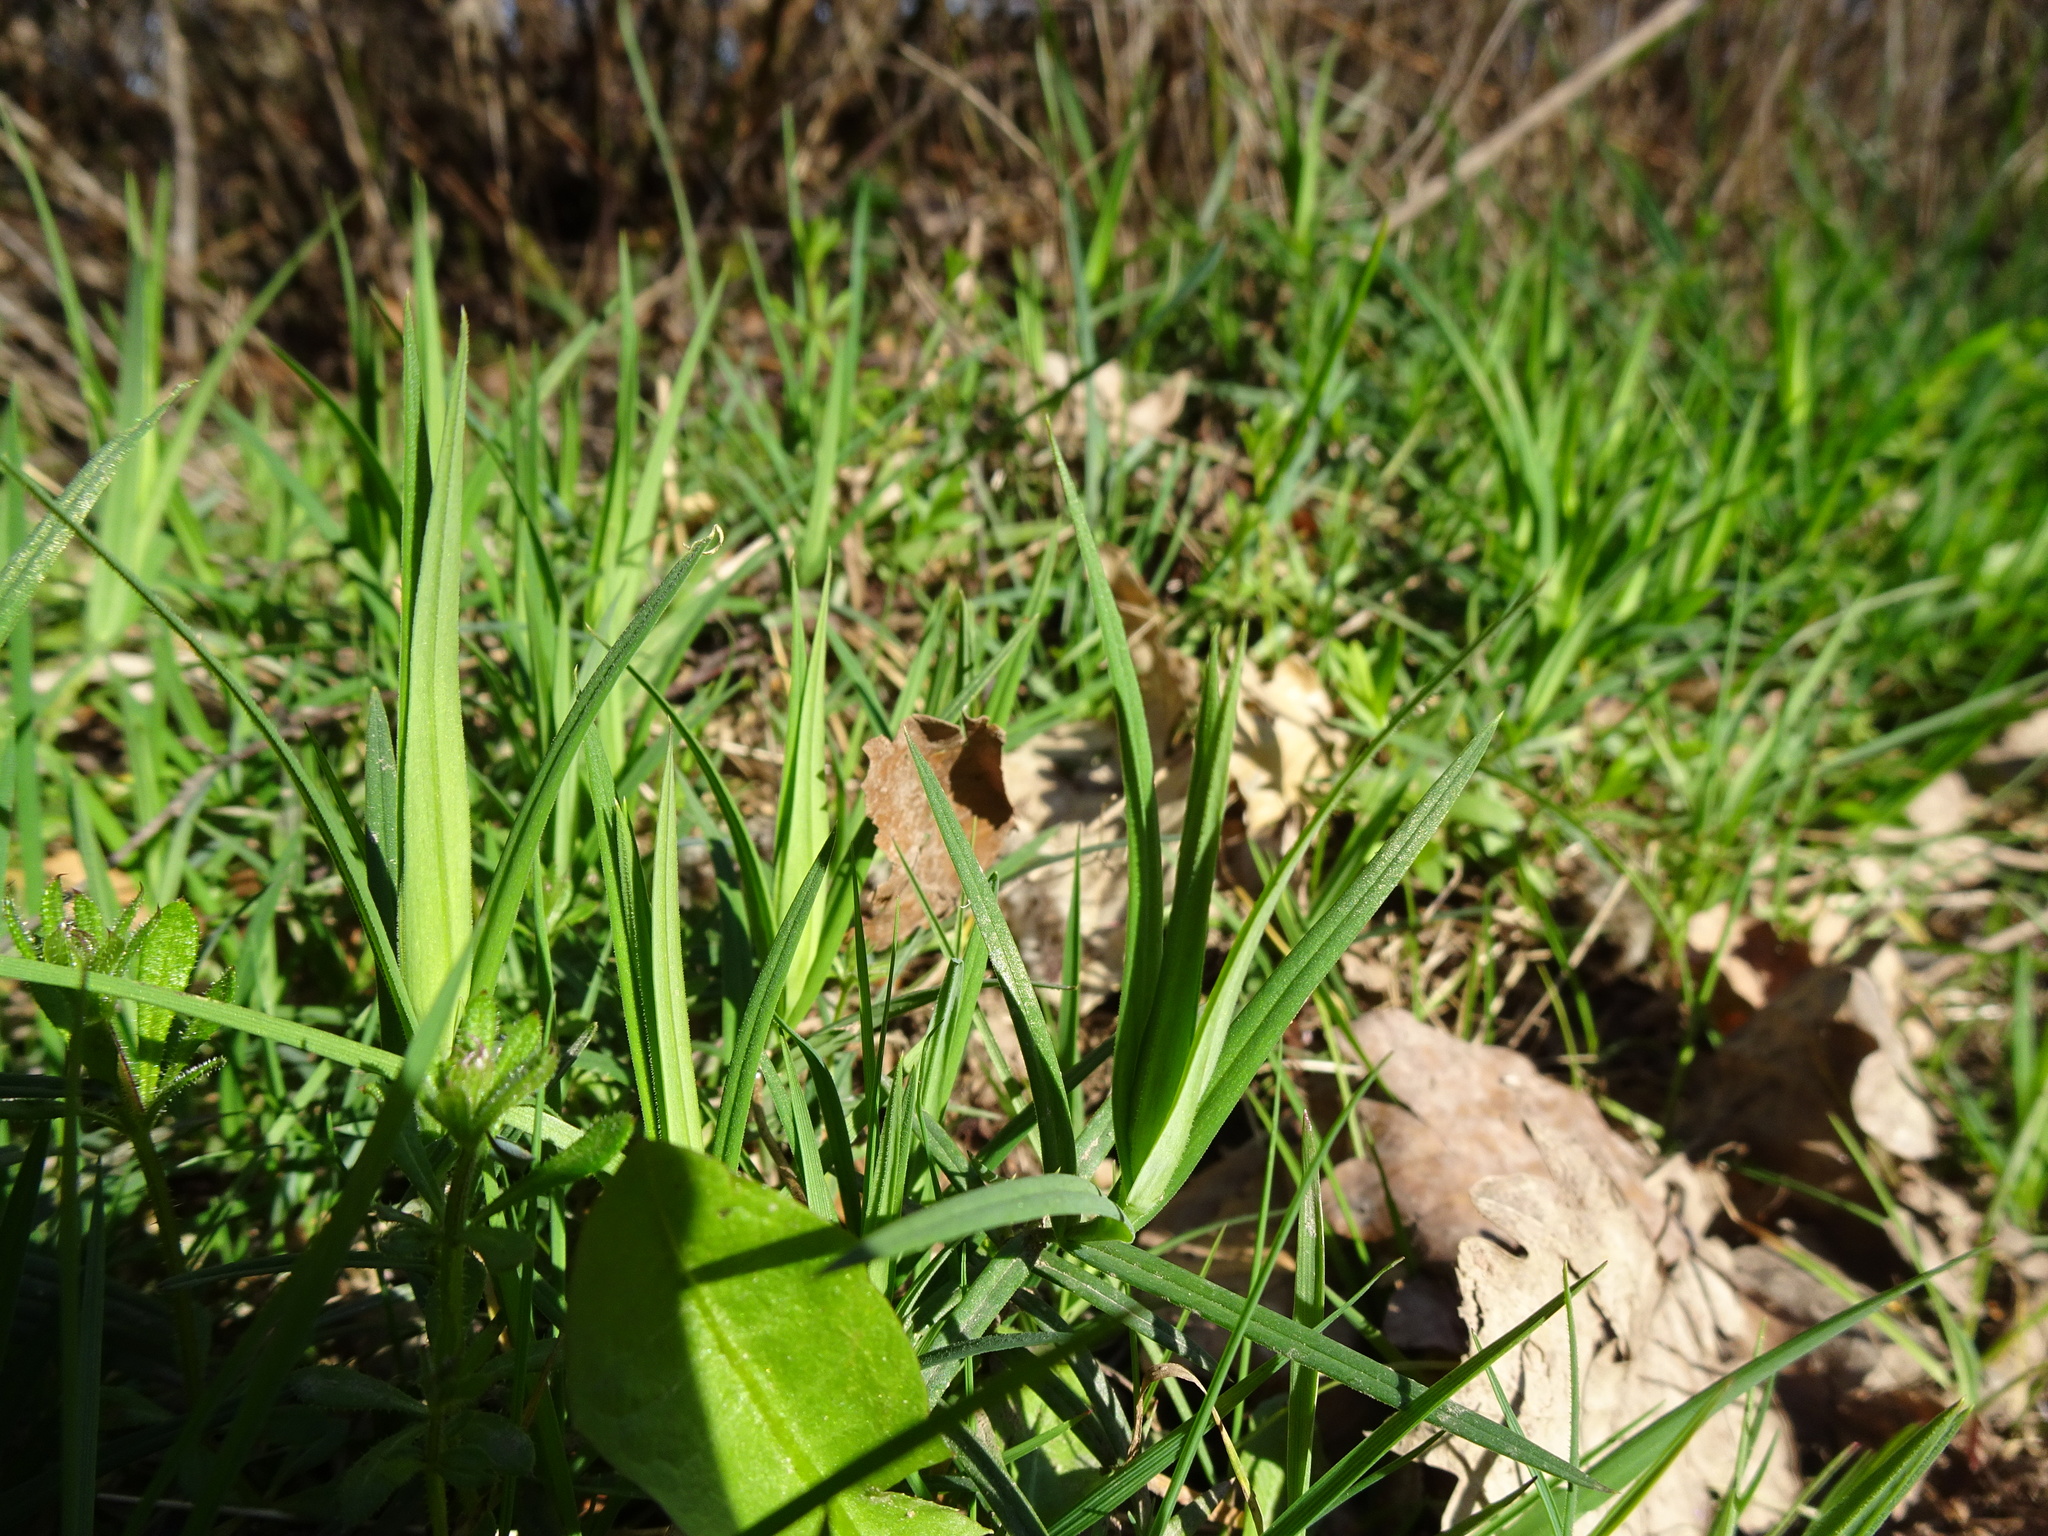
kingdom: Plantae
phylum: Tracheophyta
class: Magnoliopsida
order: Caryophyllales
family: Caryophyllaceae
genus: Rabelera
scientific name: Rabelera holostea
